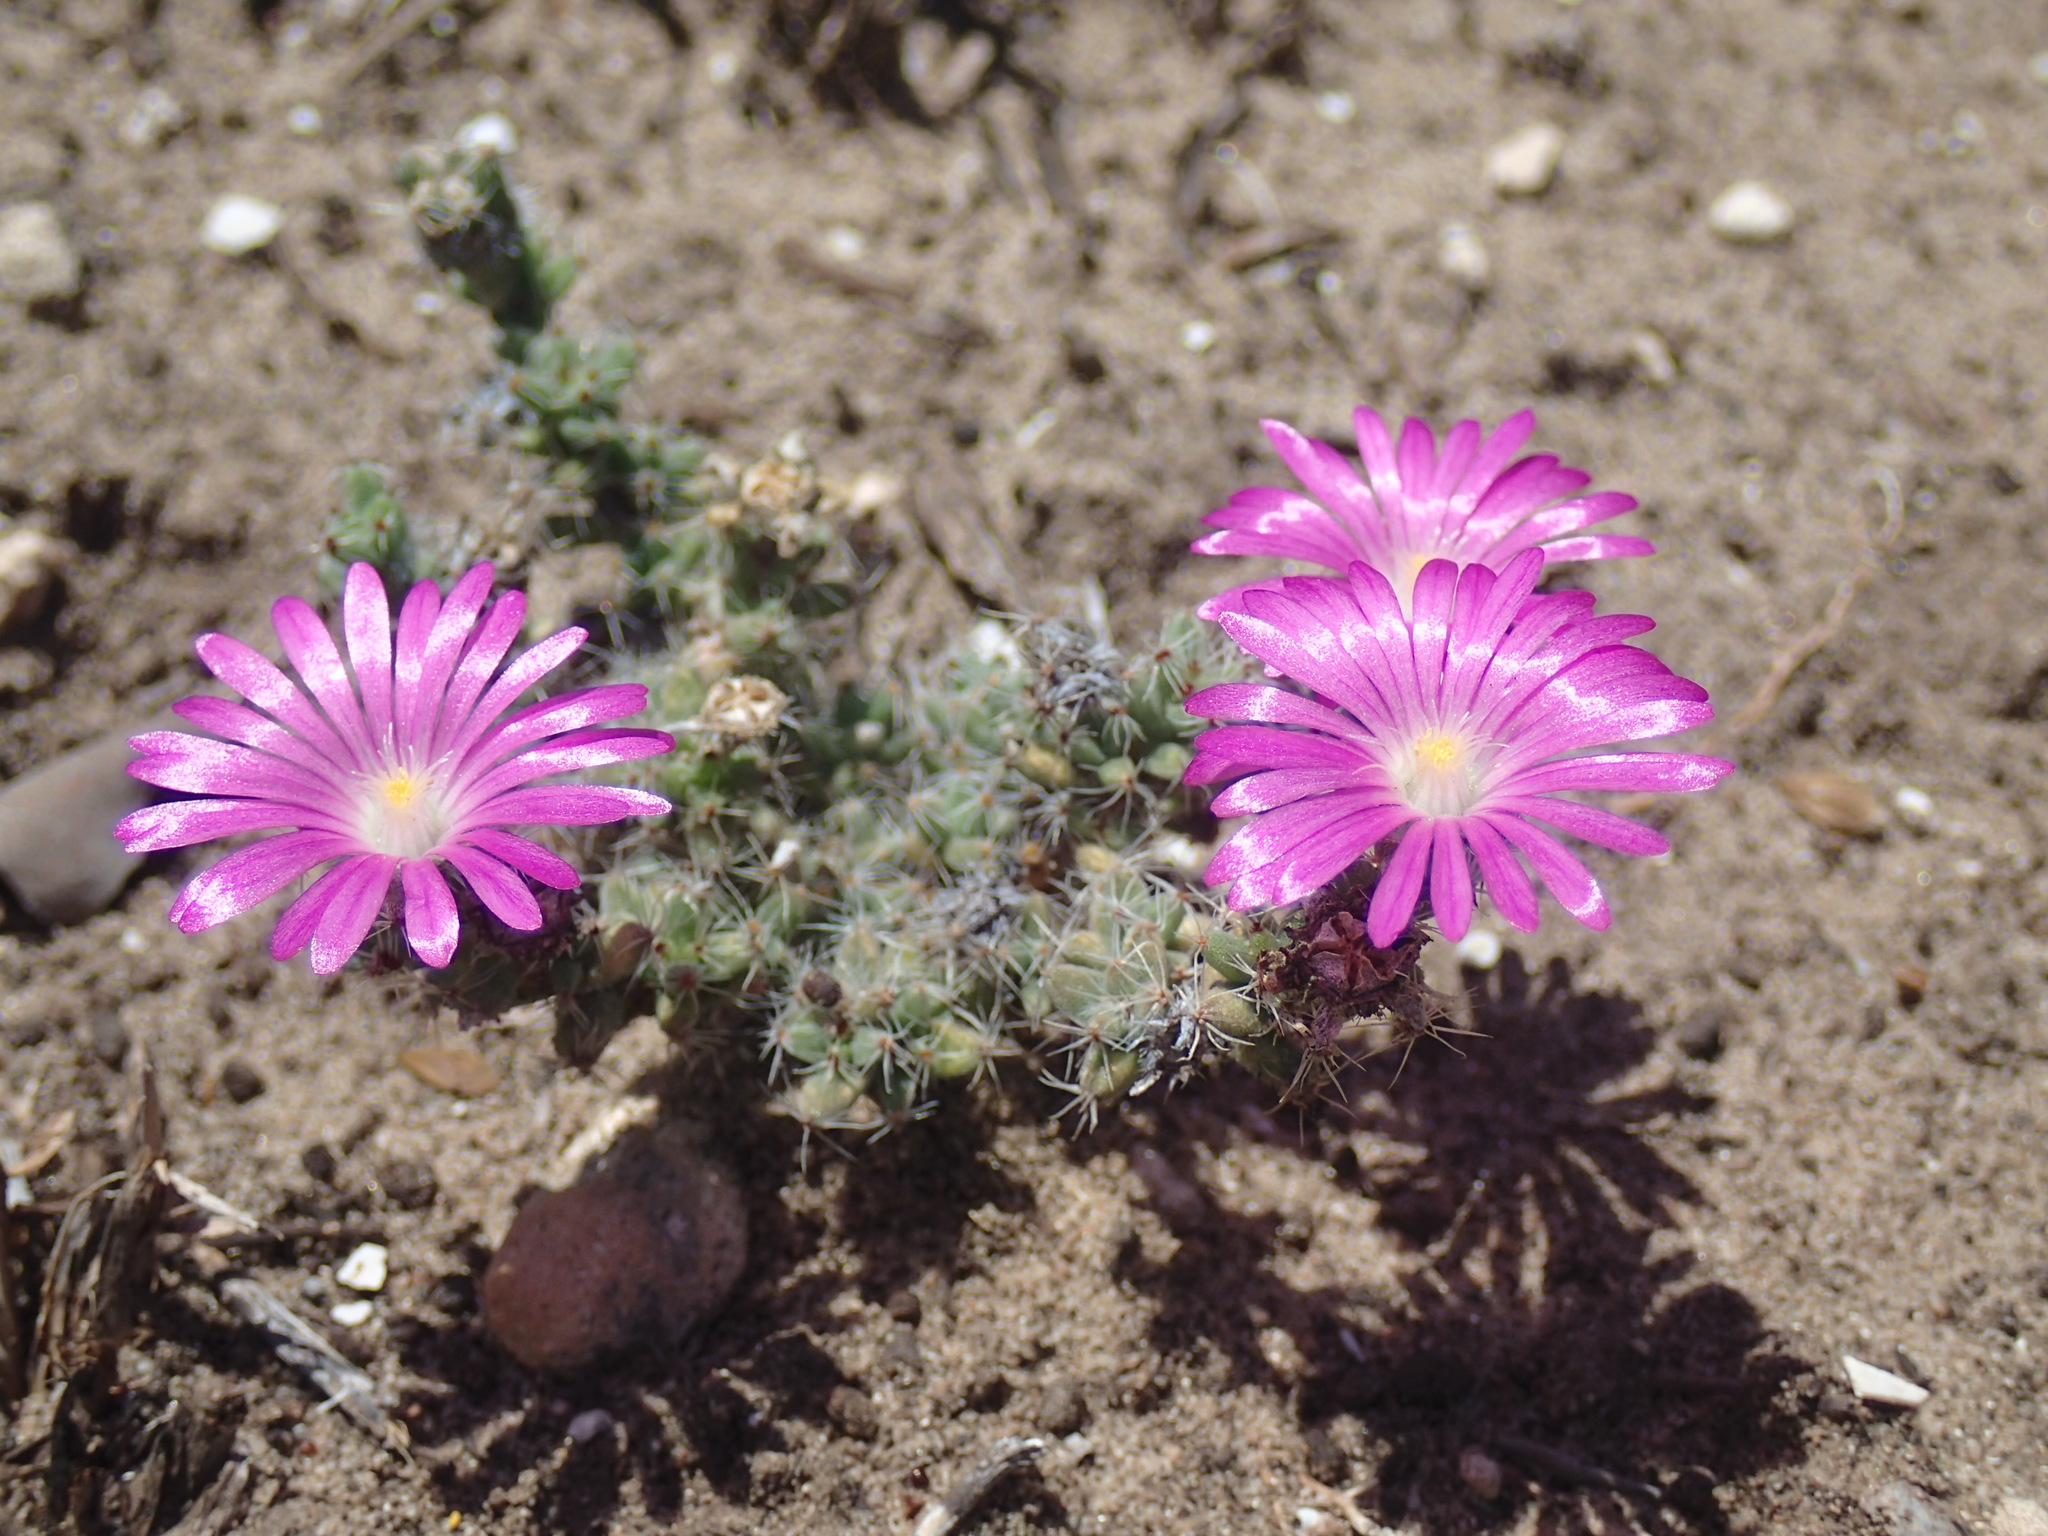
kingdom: Plantae
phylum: Tracheophyta
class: Magnoliopsida
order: Caryophyllales
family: Aizoaceae
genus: Trichodiadema
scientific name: Trichodiadema intonsum
